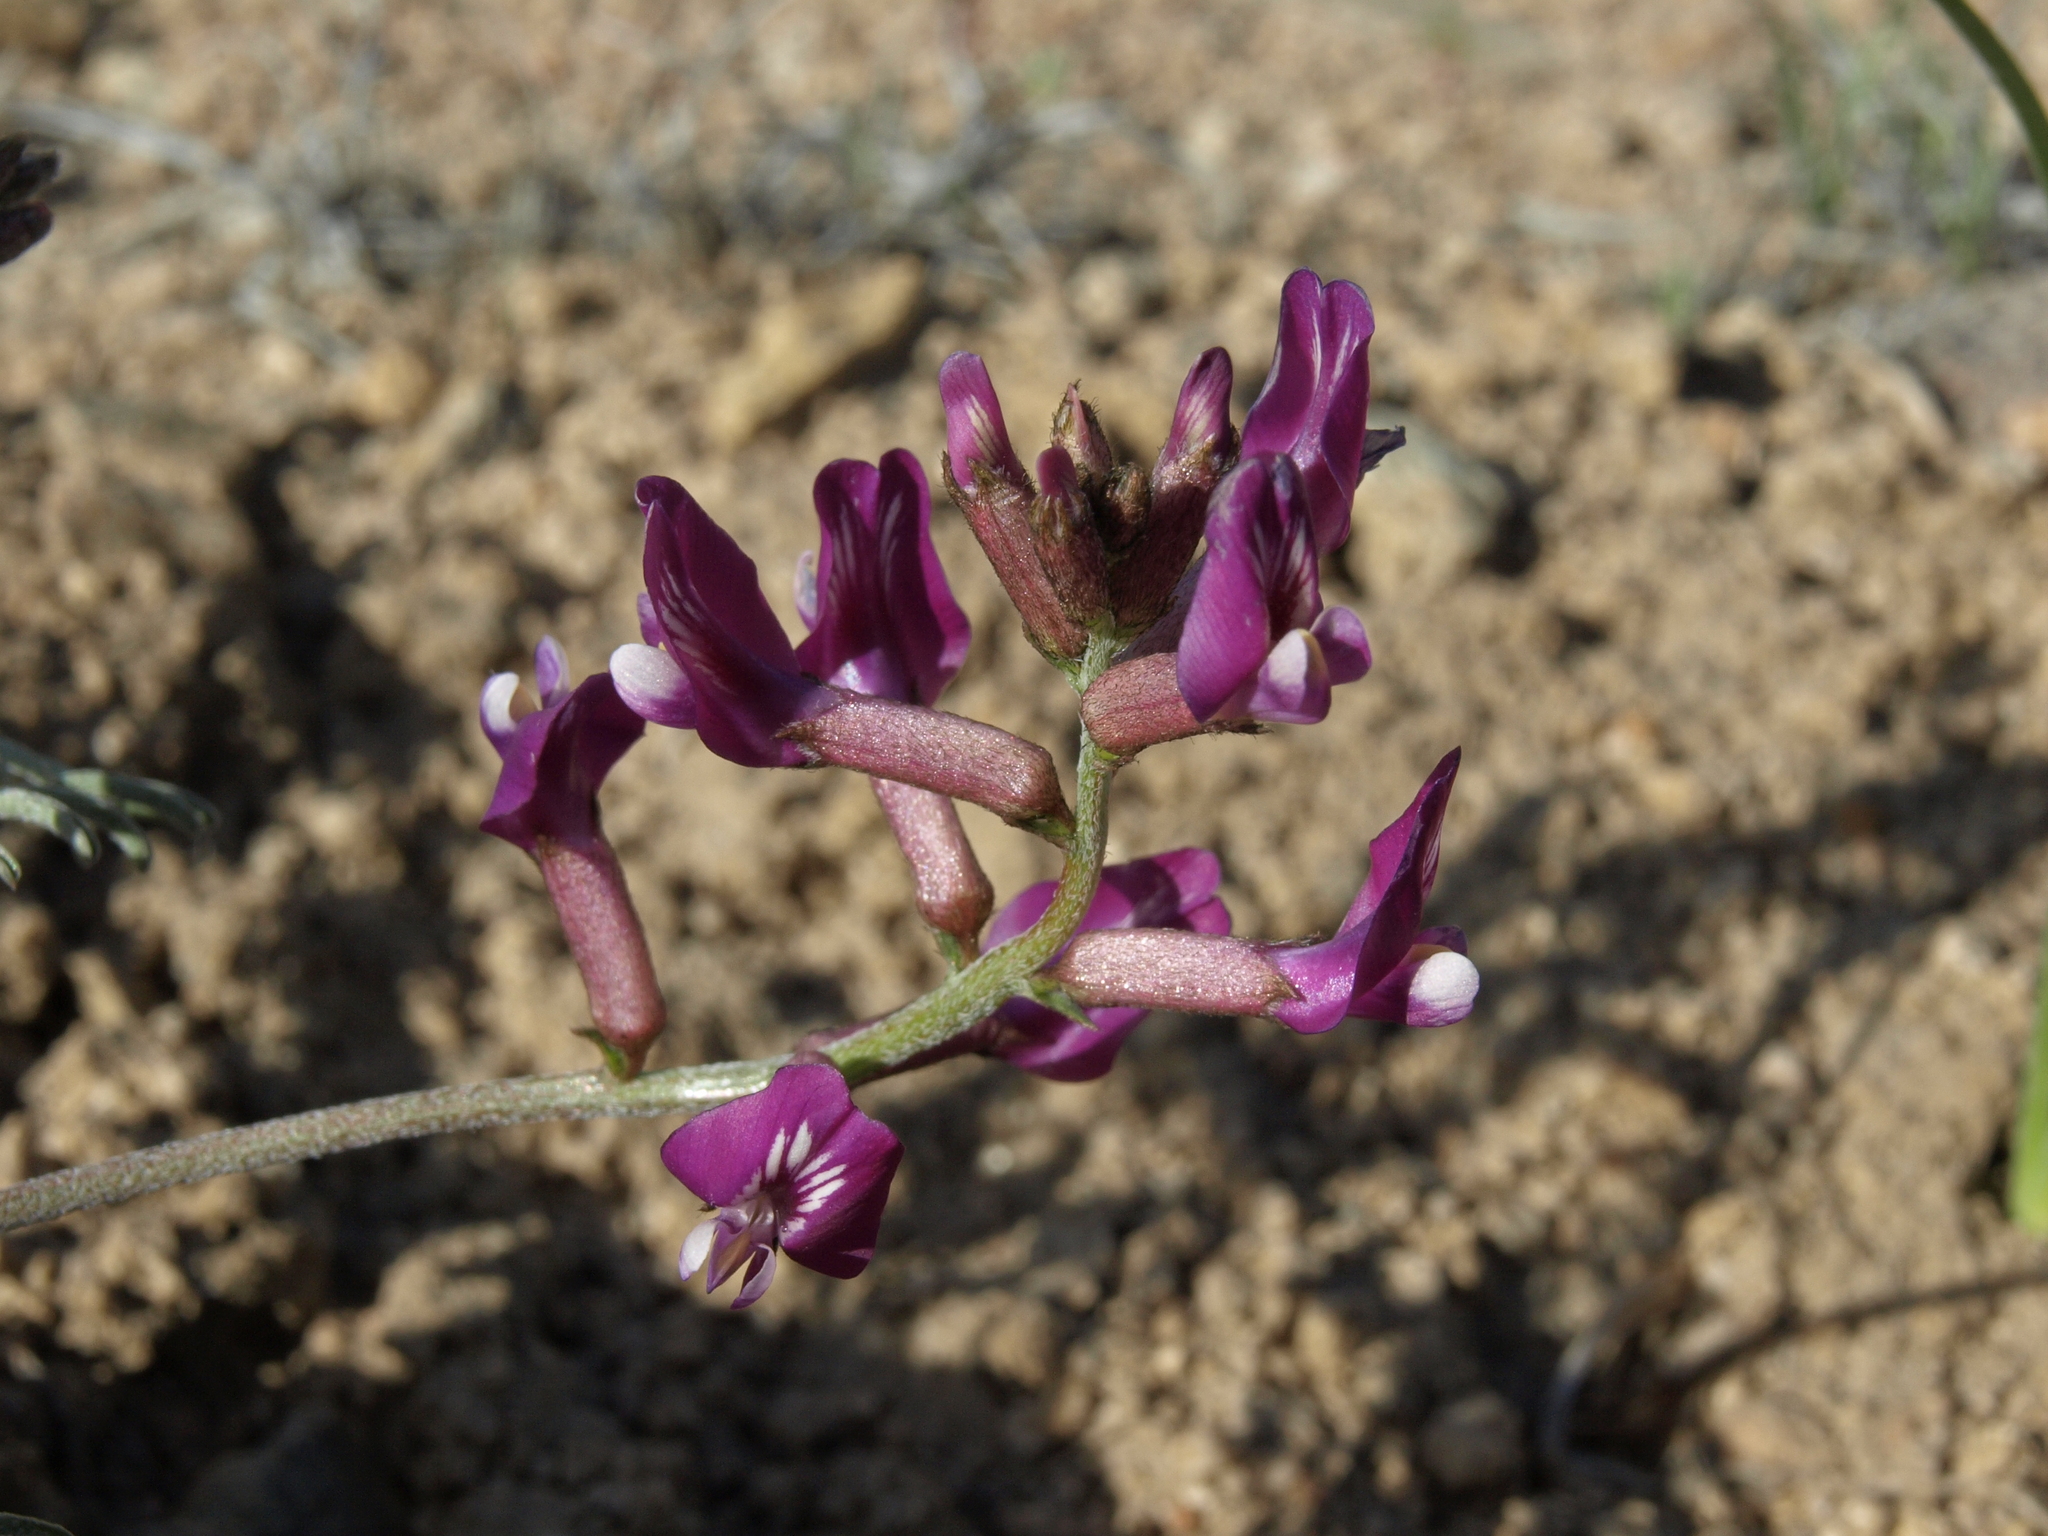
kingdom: Plantae
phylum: Tracheophyta
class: Magnoliopsida
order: Fabales
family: Fabaceae
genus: Astragalus
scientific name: Astragalus casei
